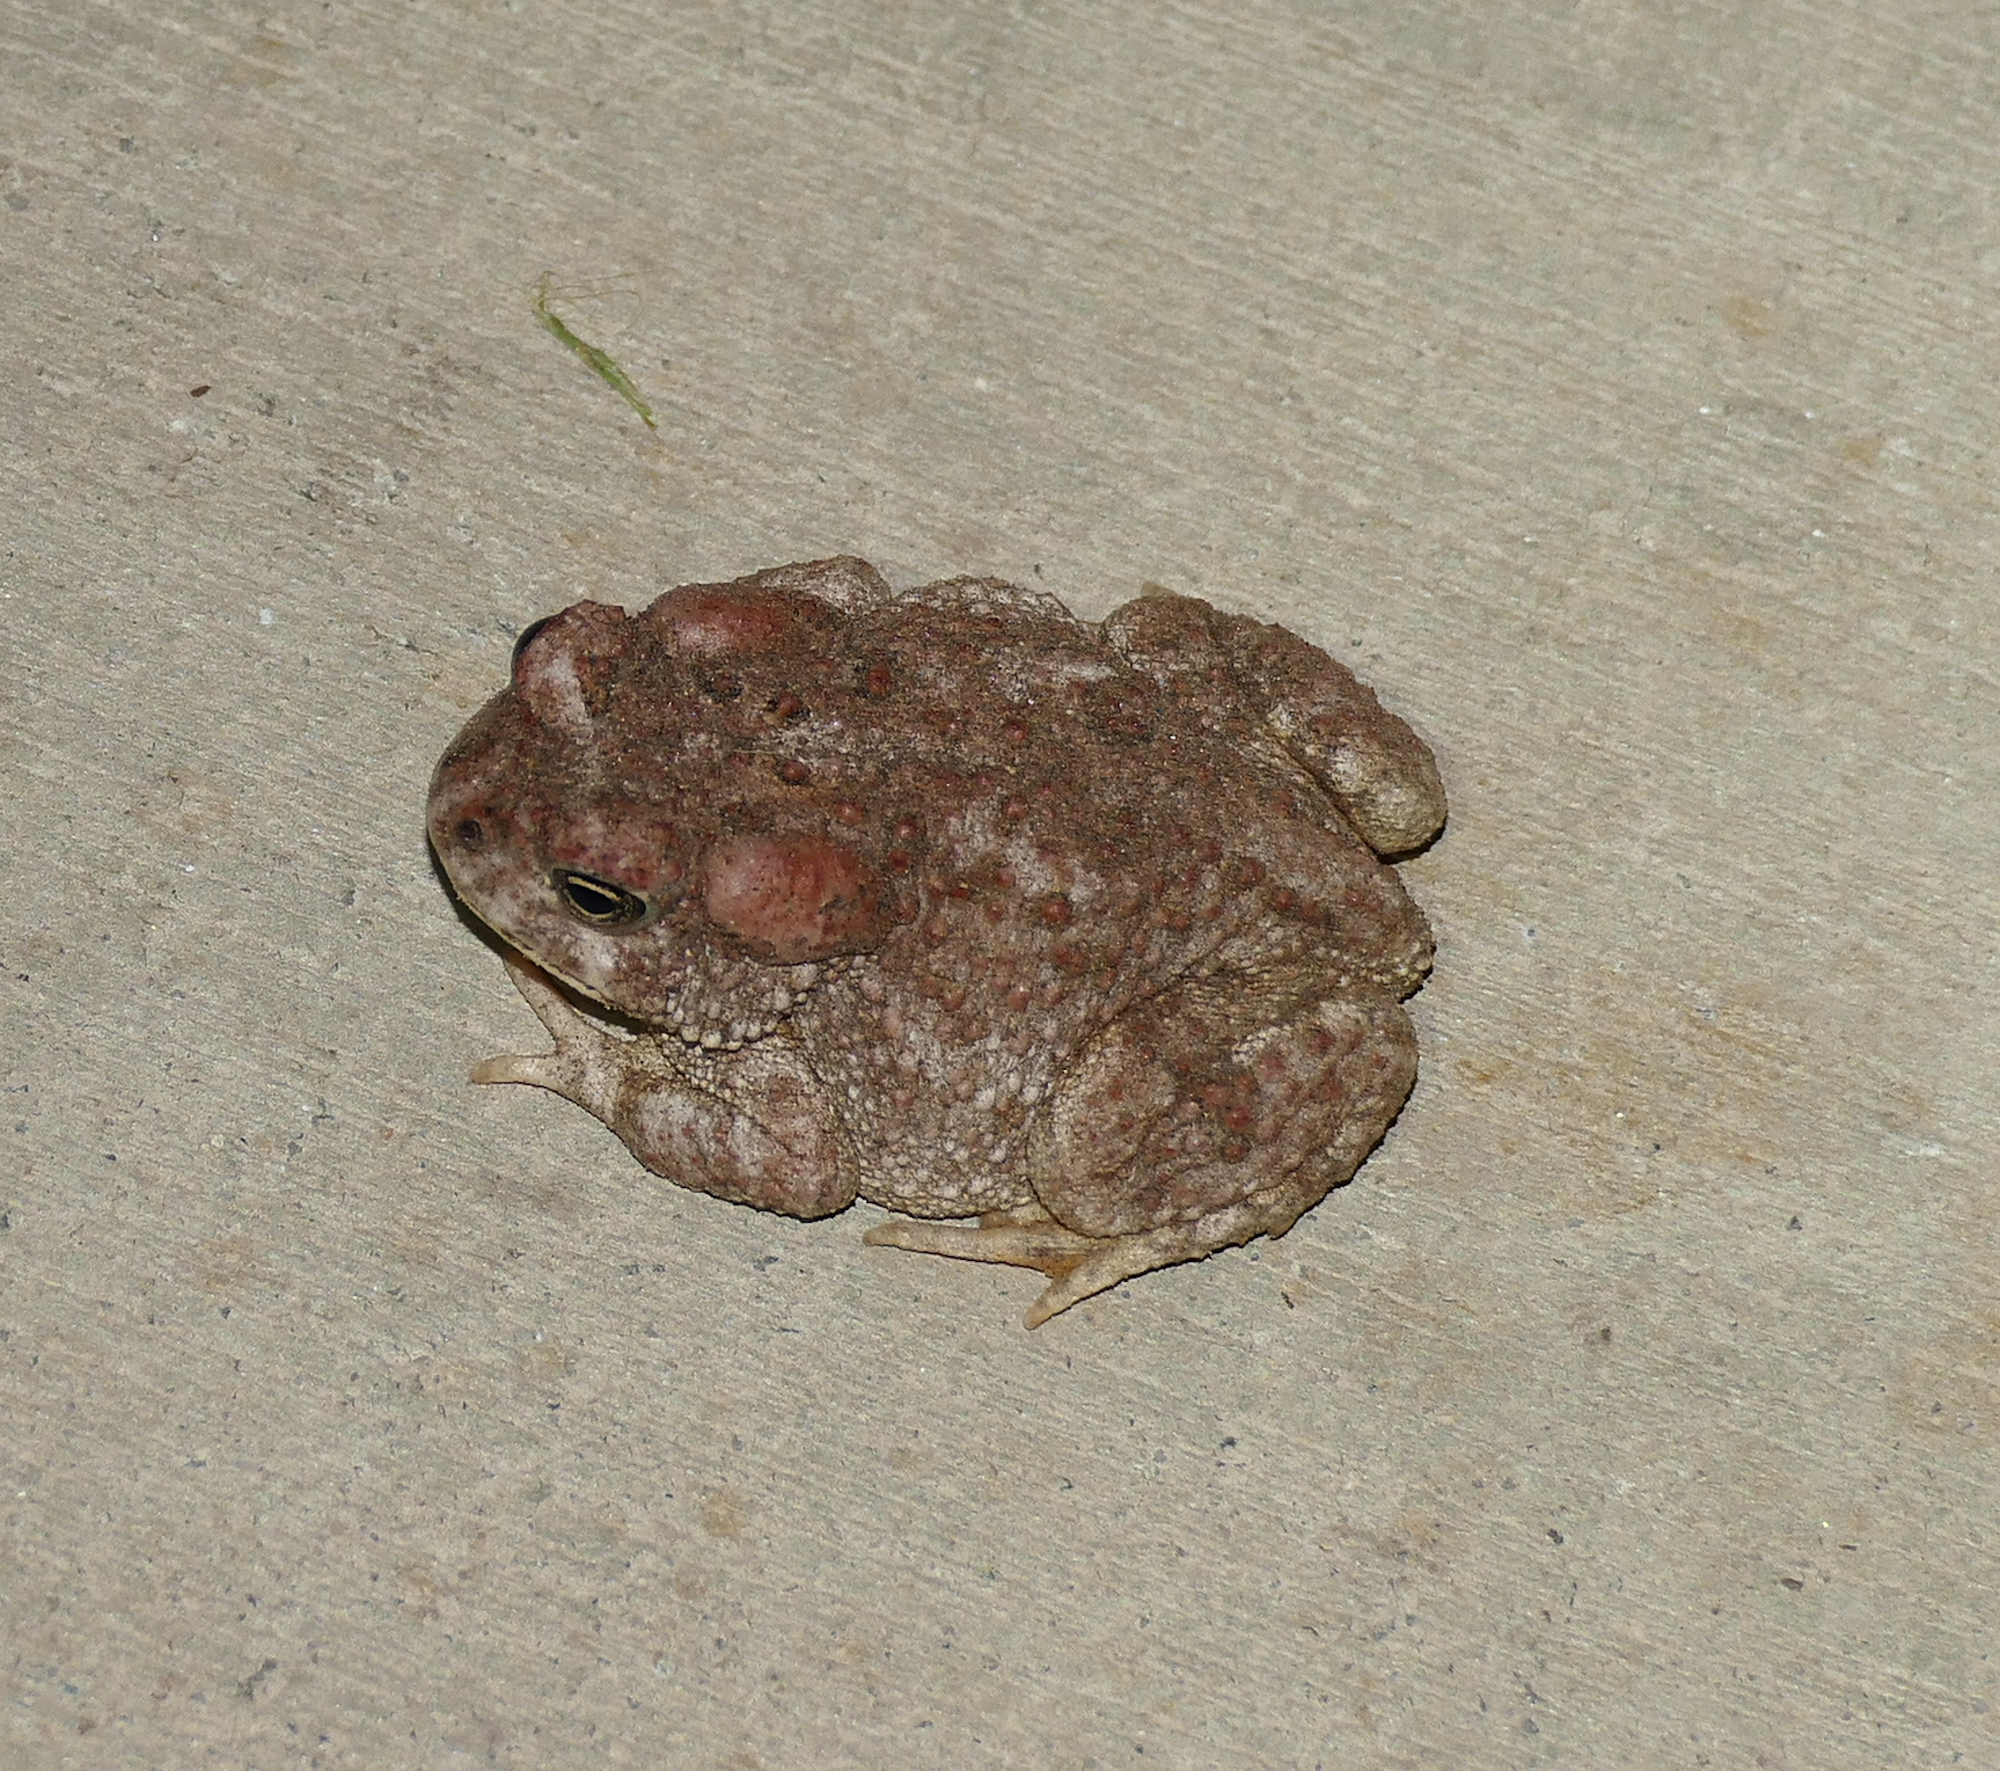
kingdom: Animalia
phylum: Chordata
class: Amphibia
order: Anura
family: Bufonidae
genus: Anaxyrus
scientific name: Anaxyrus microscaphus
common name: Arizona toad
